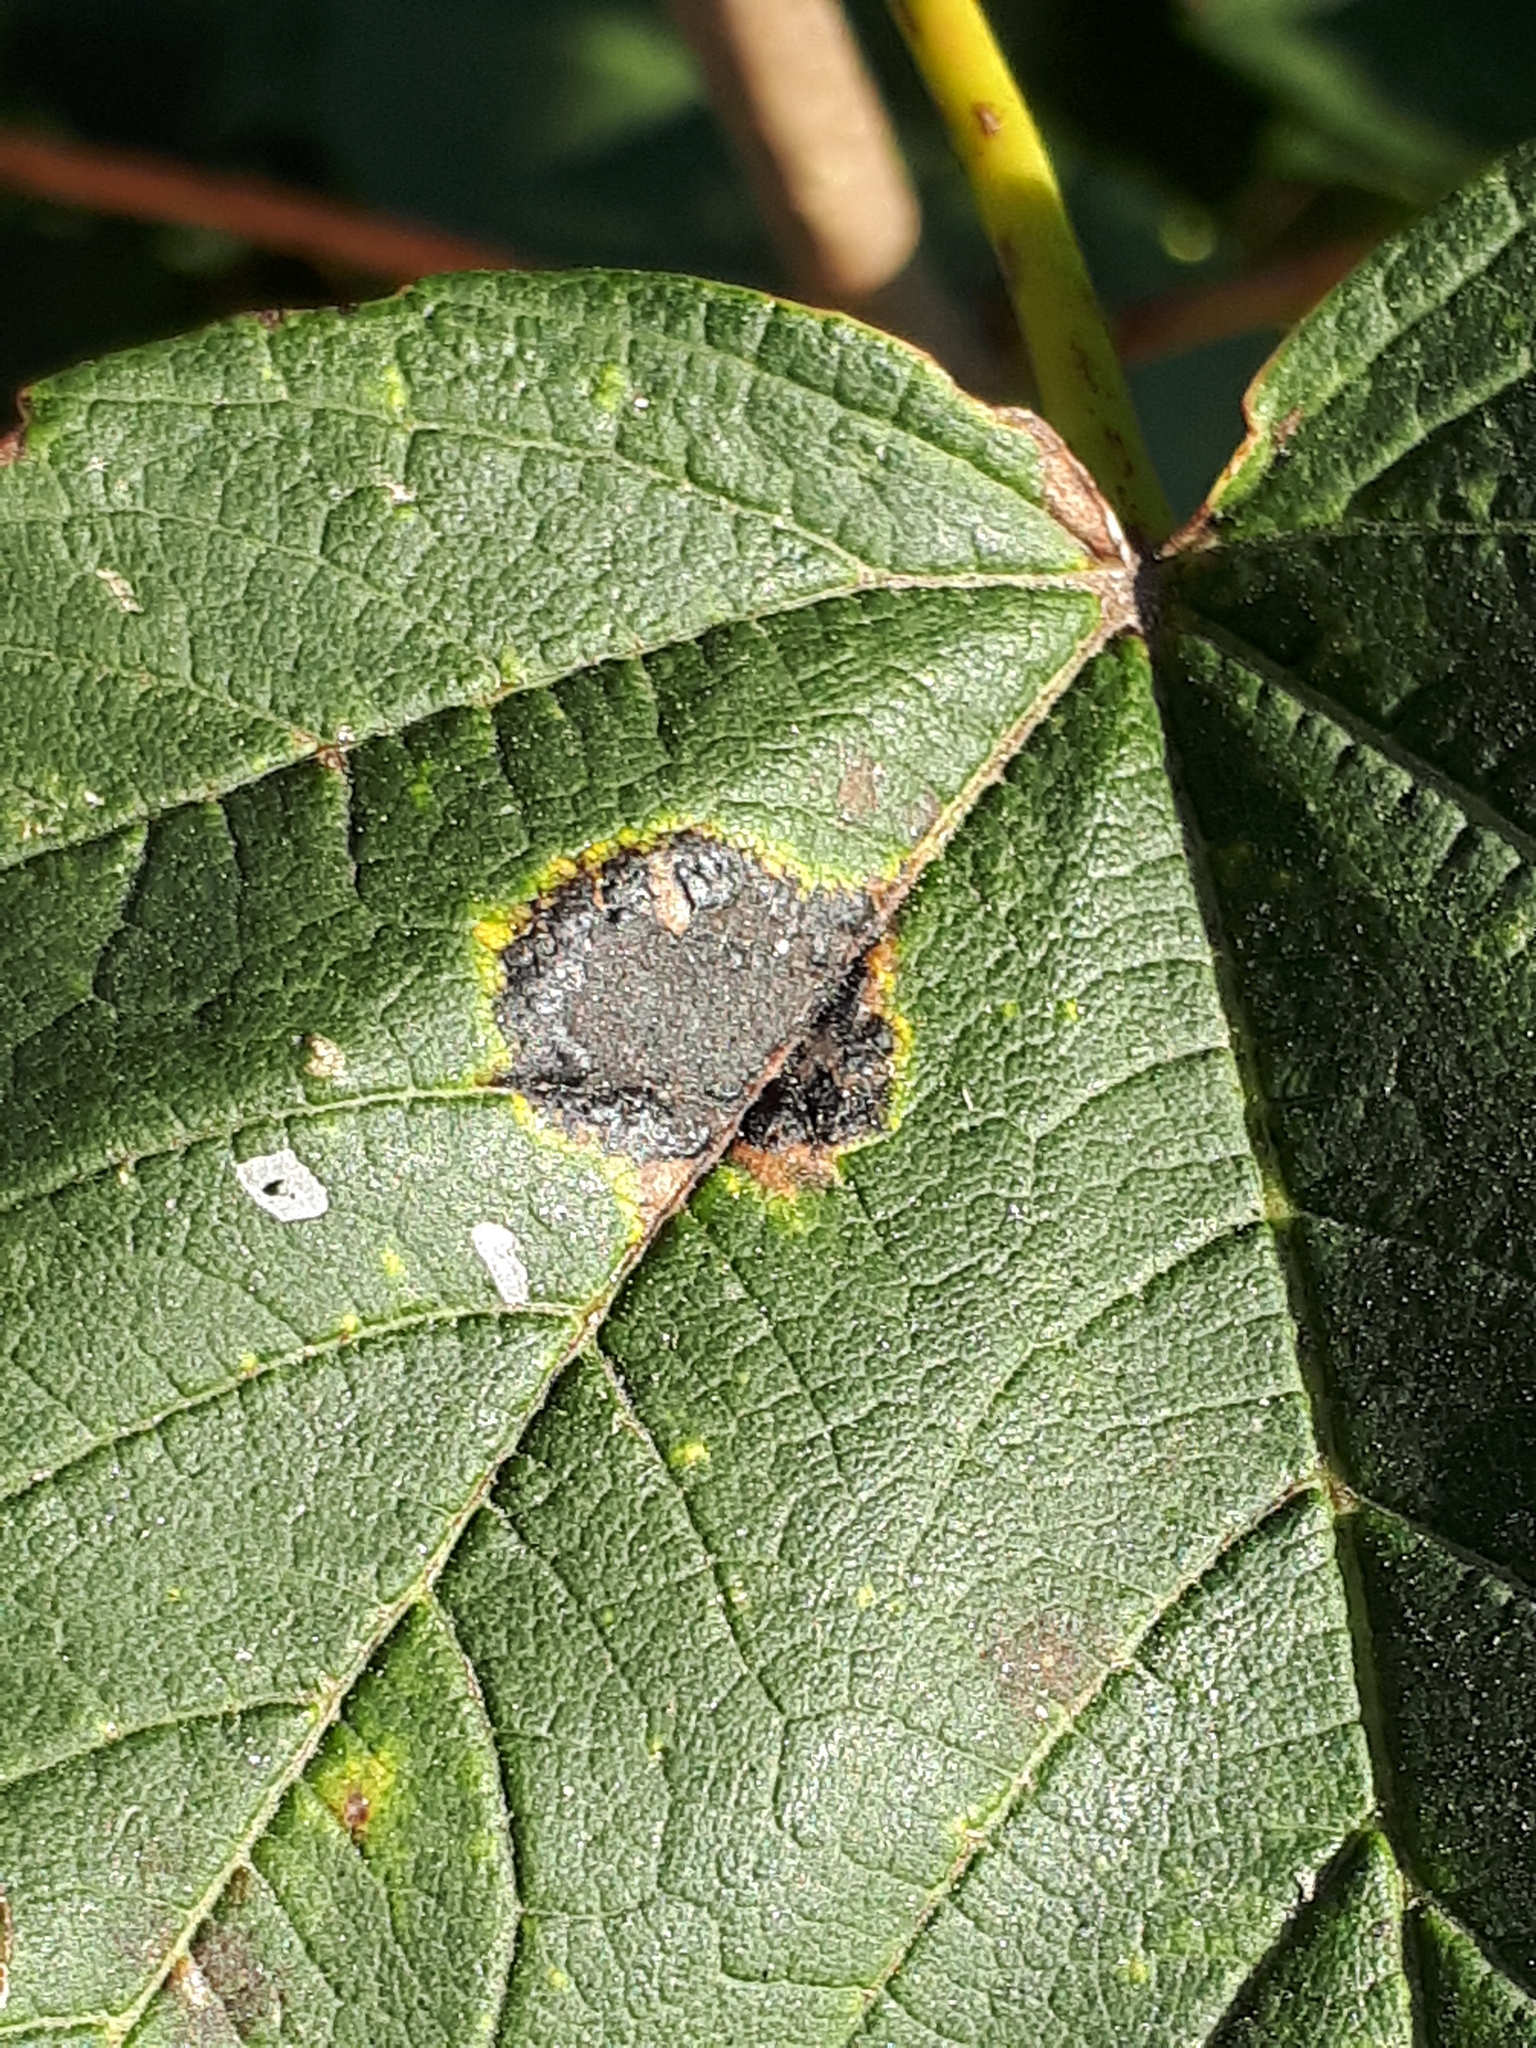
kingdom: Fungi
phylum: Ascomycota
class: Leotiomycetes
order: Rhytismatales
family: Rhytismataceae
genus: Rhytisma
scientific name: Rhytisma acerinum
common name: European tar spot
